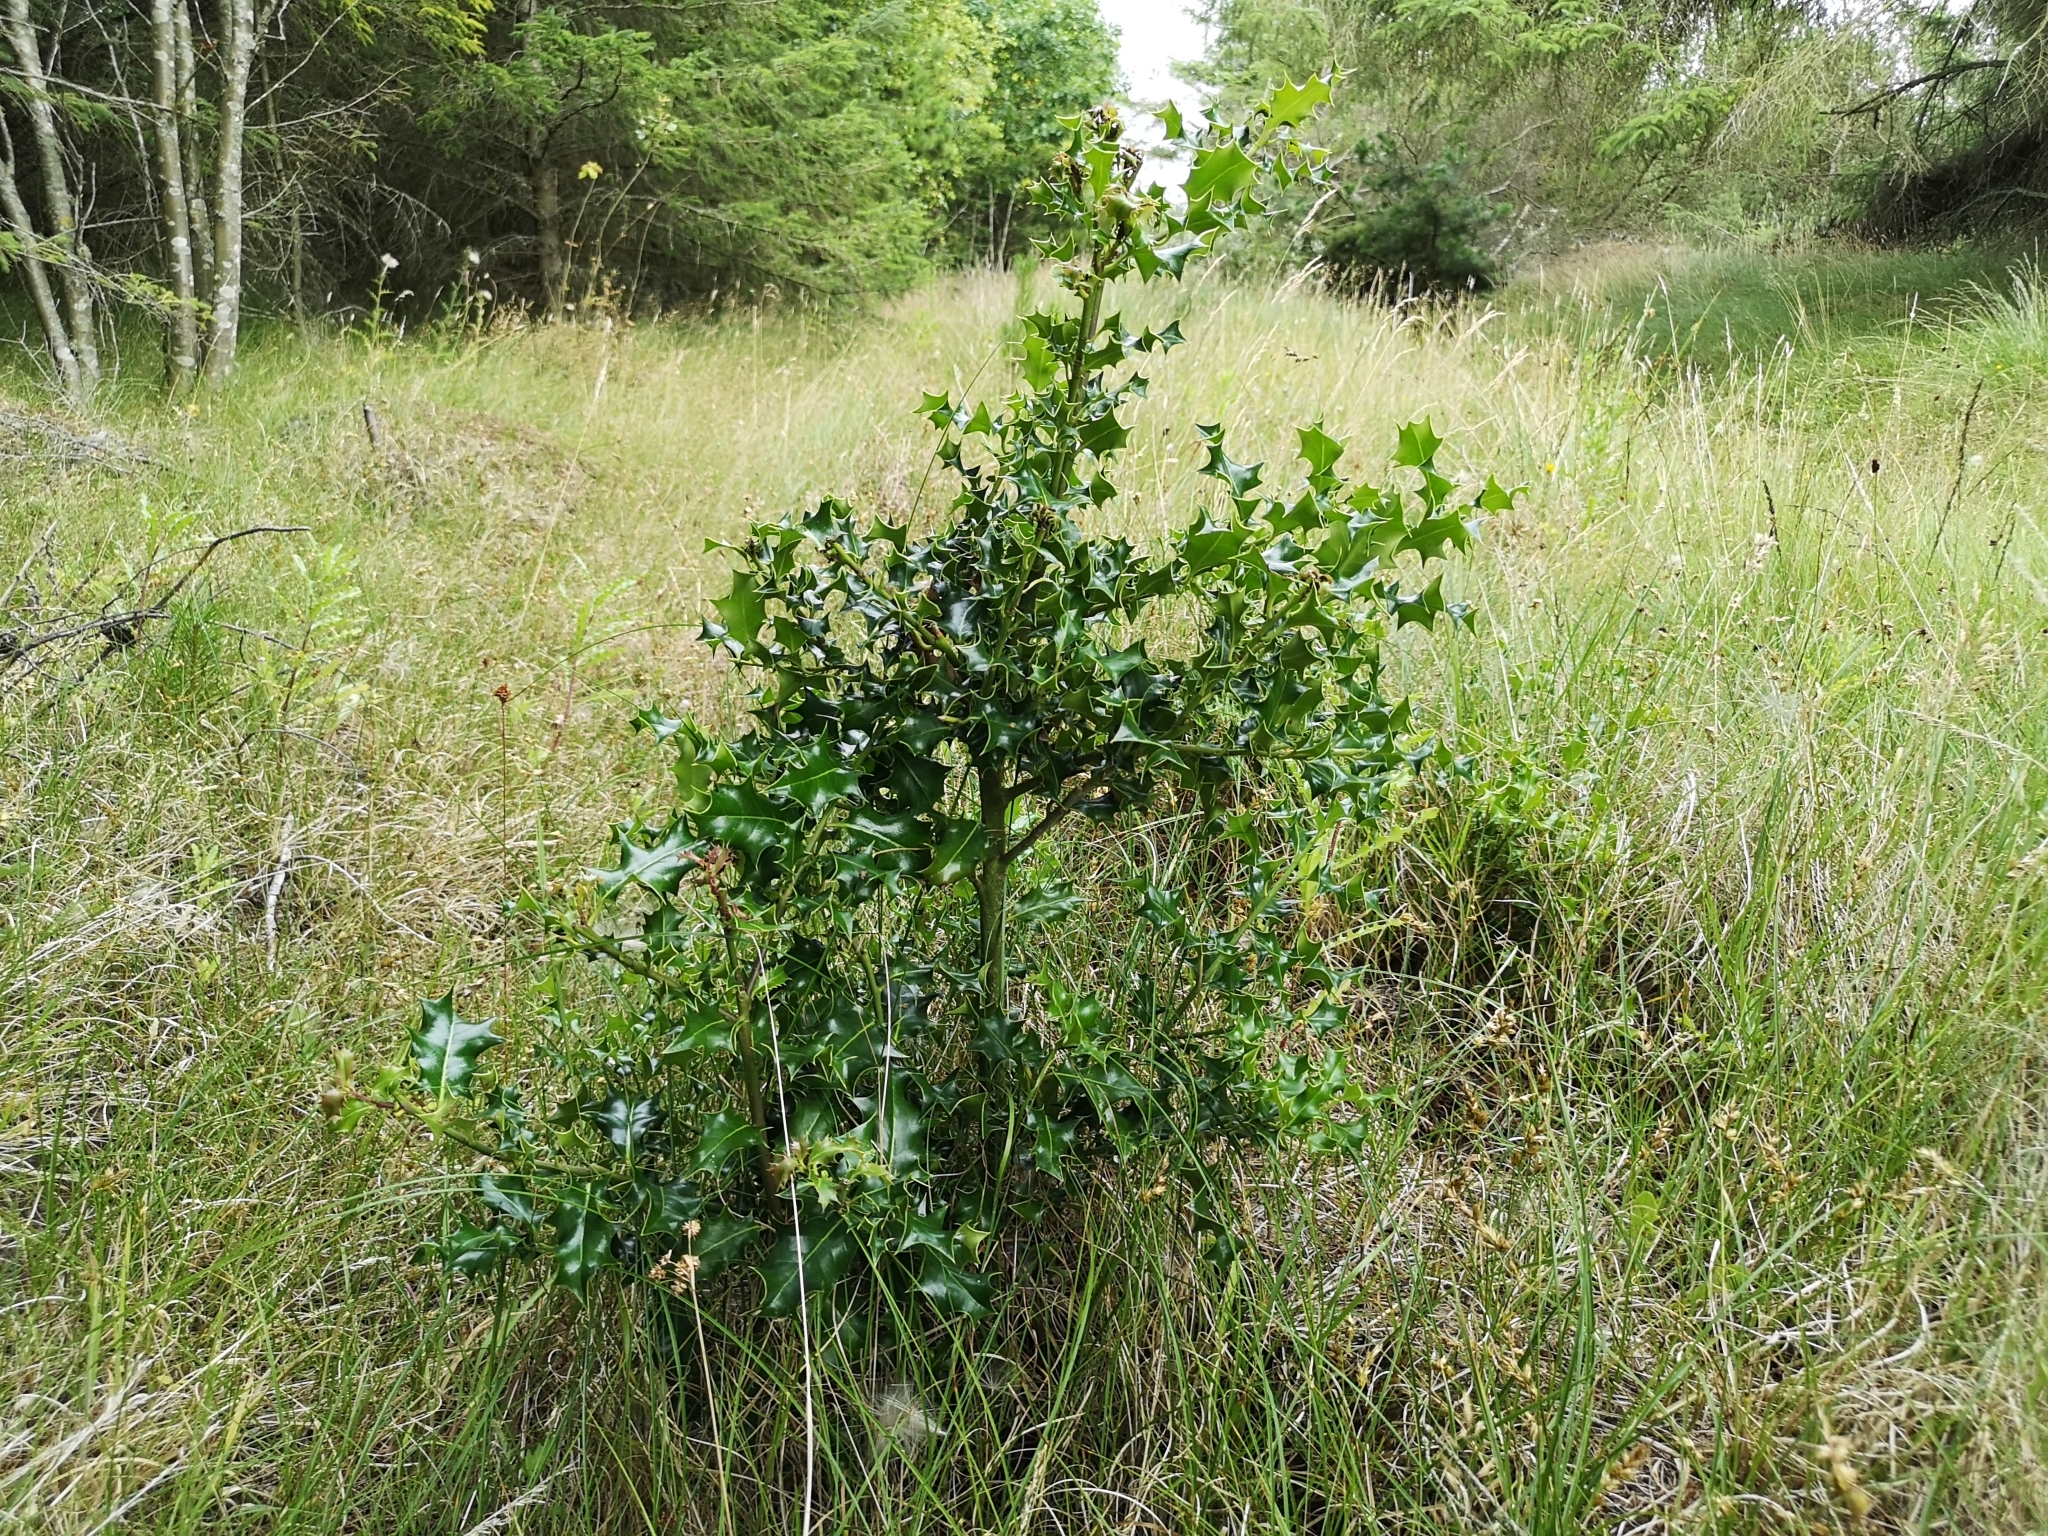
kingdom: Plantae
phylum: Tracheophyta
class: Magnoliopsida
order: Aquifoliales
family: Aquifoliaceae
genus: Ilex
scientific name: Ilex aquifolium
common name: English holly
